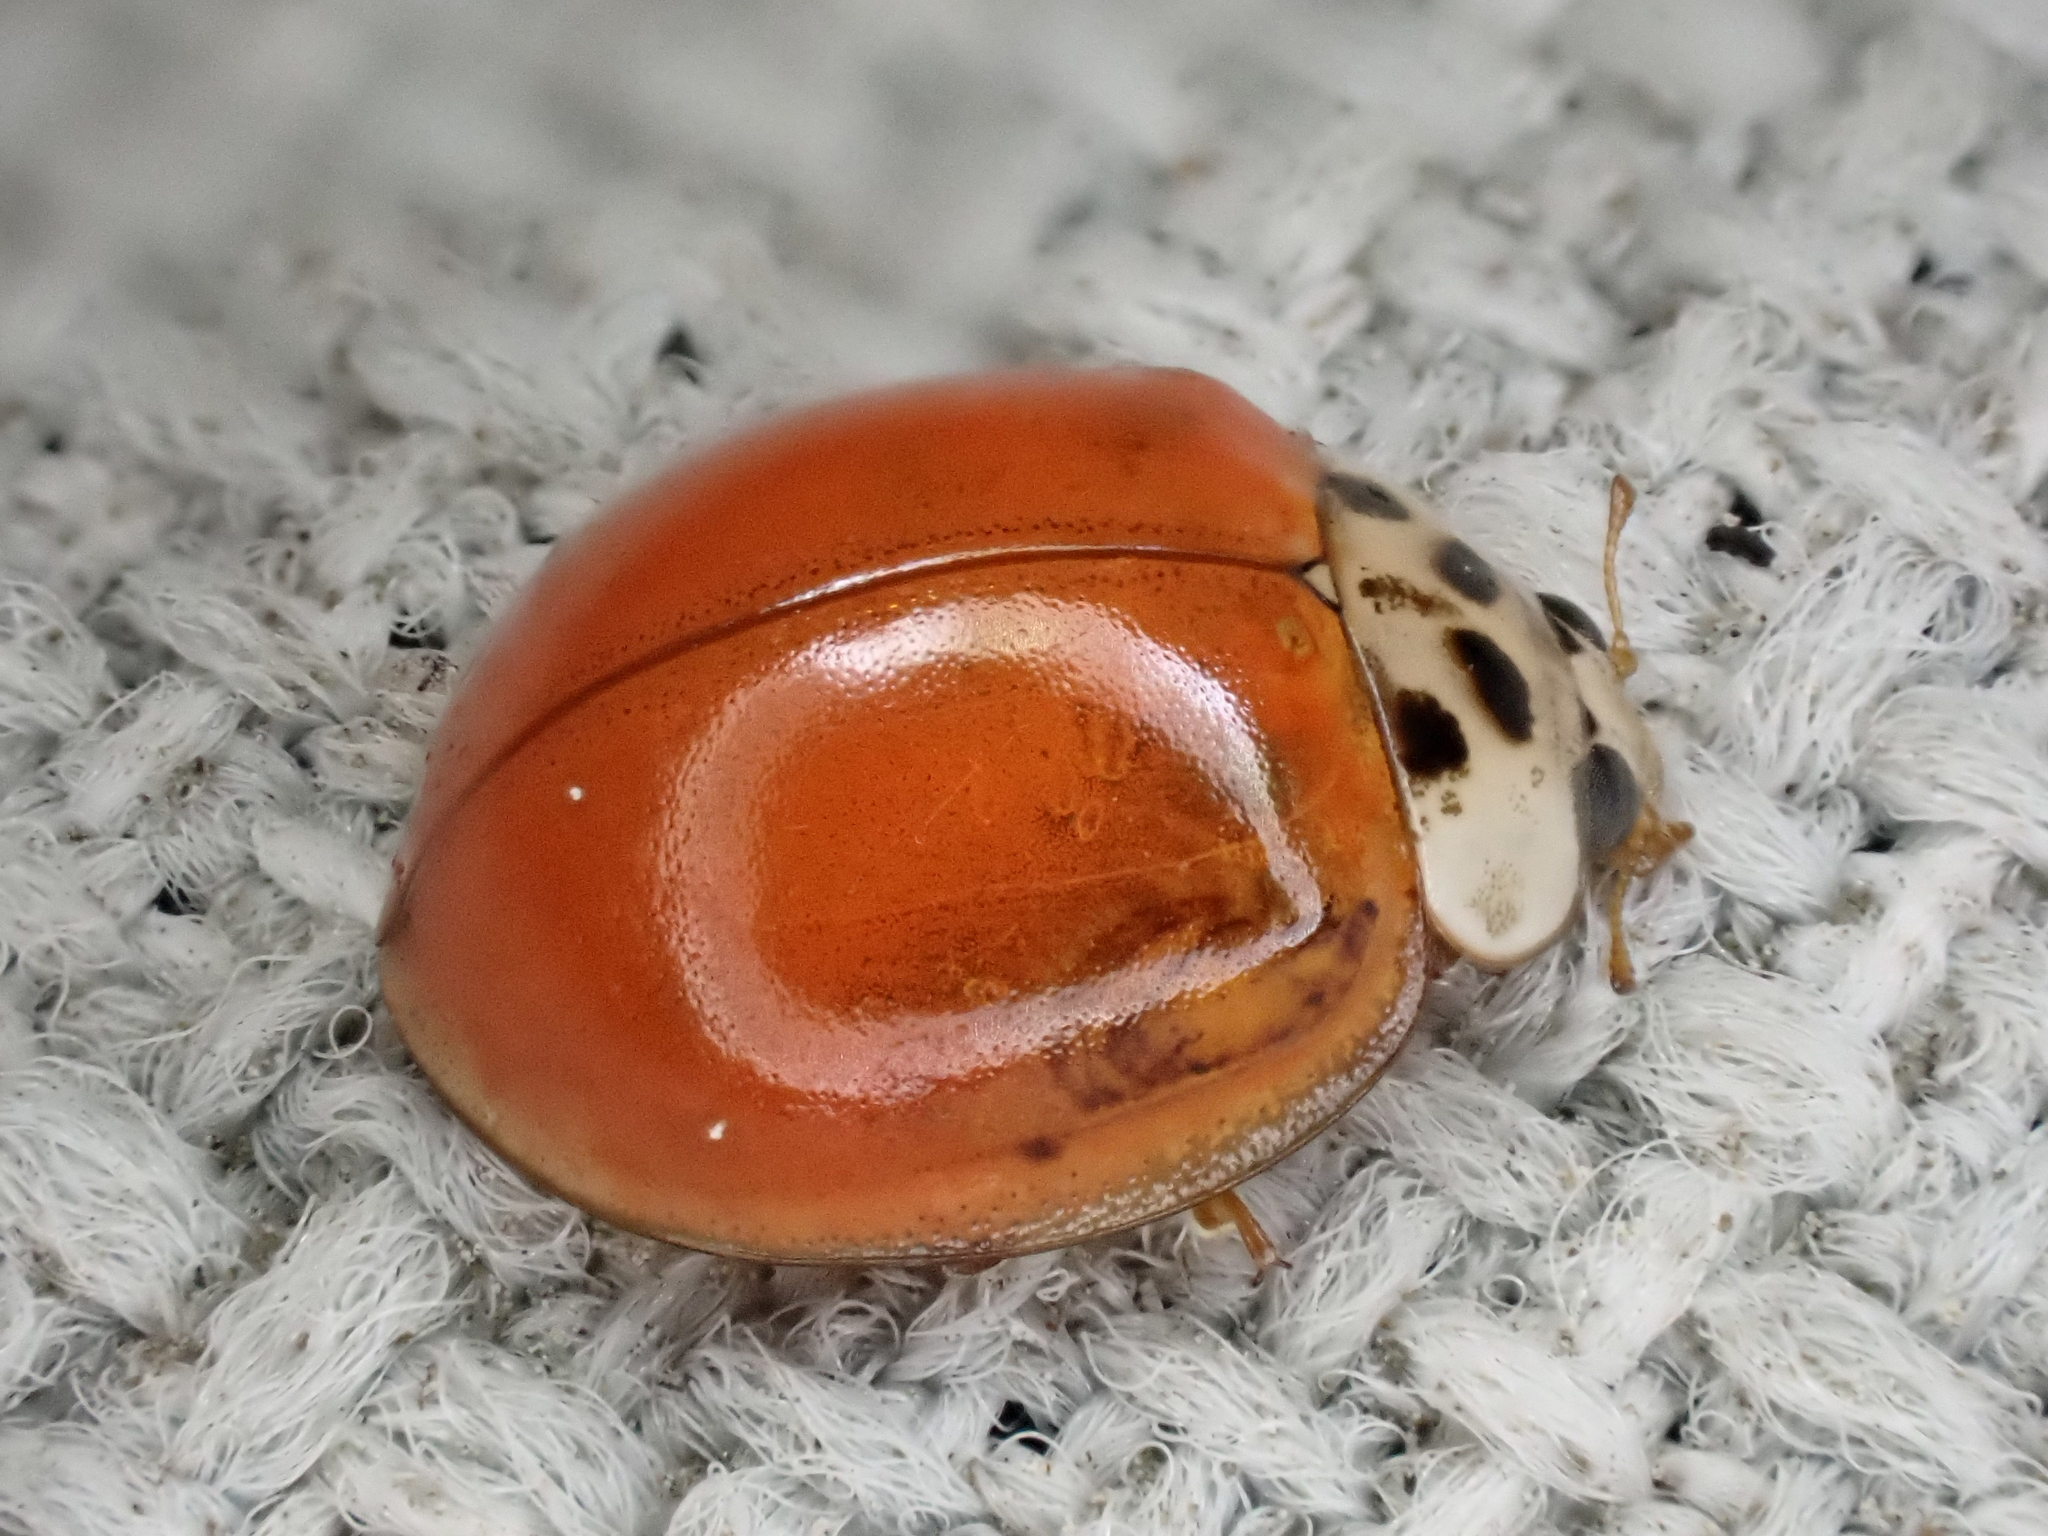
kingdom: Animalia
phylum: Arthropoda
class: Insecta
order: Coleoptera
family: Coccinellidae
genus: Harmonia
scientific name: Harmonia axyridis
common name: Harlequin ladybird
